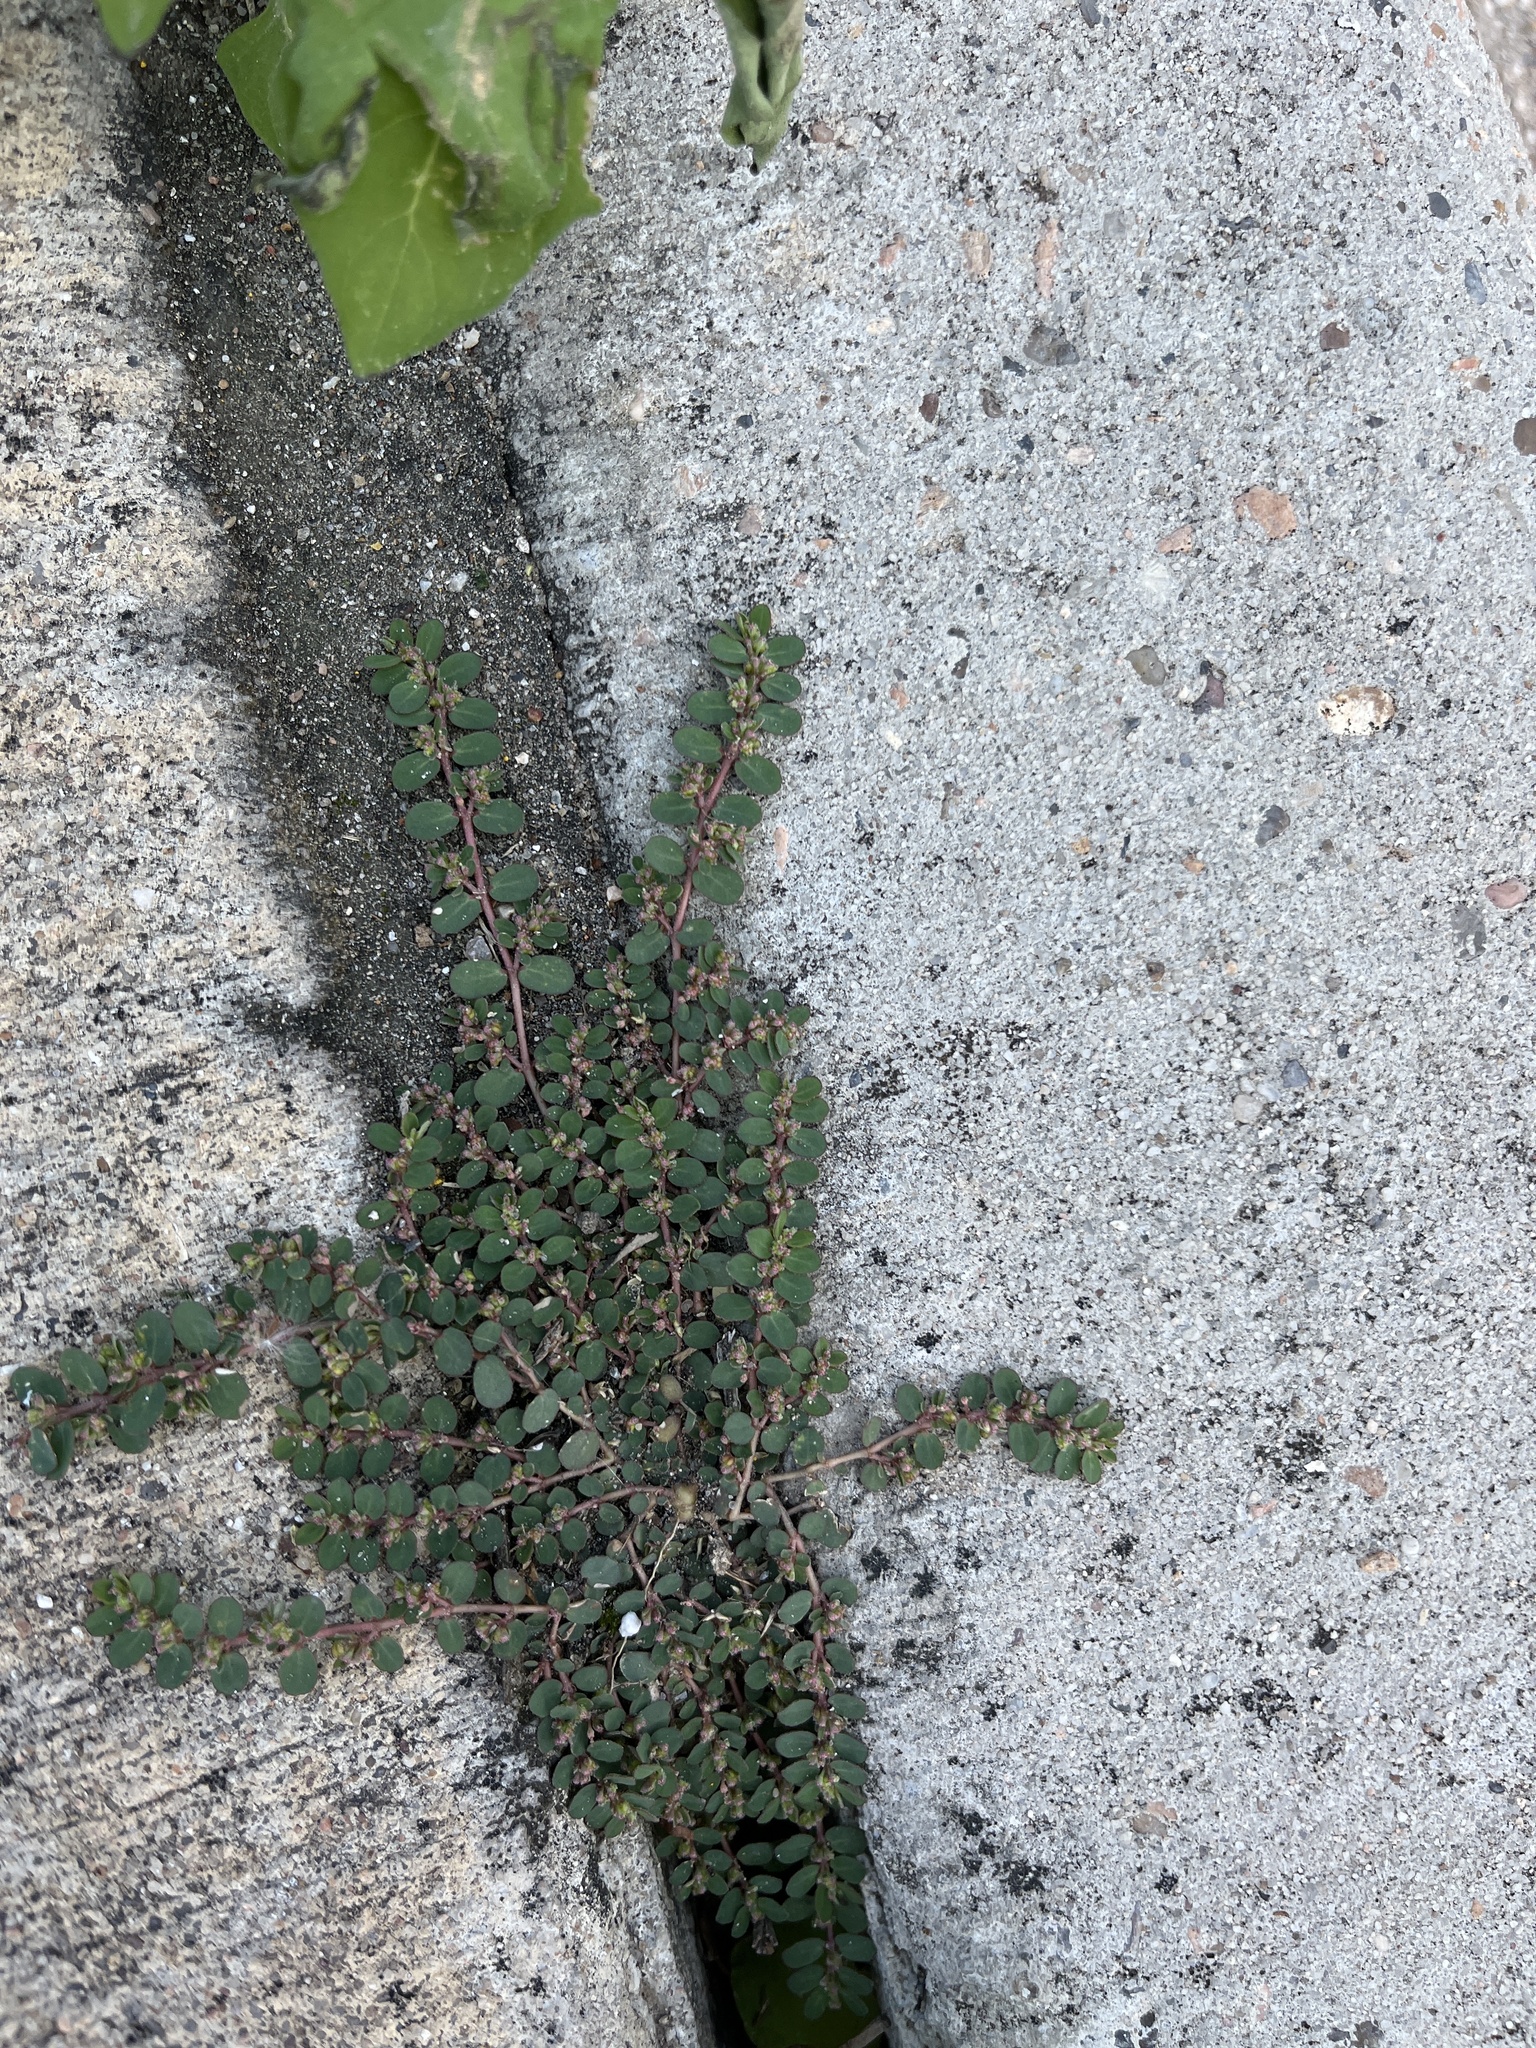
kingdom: Plantae
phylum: Tracheophyta
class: Magnoliopsida
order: Malpighiales
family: Euphorbiaceae
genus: Euphorbia
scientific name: Euphorbia prostrata
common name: Prostrate sandmat
